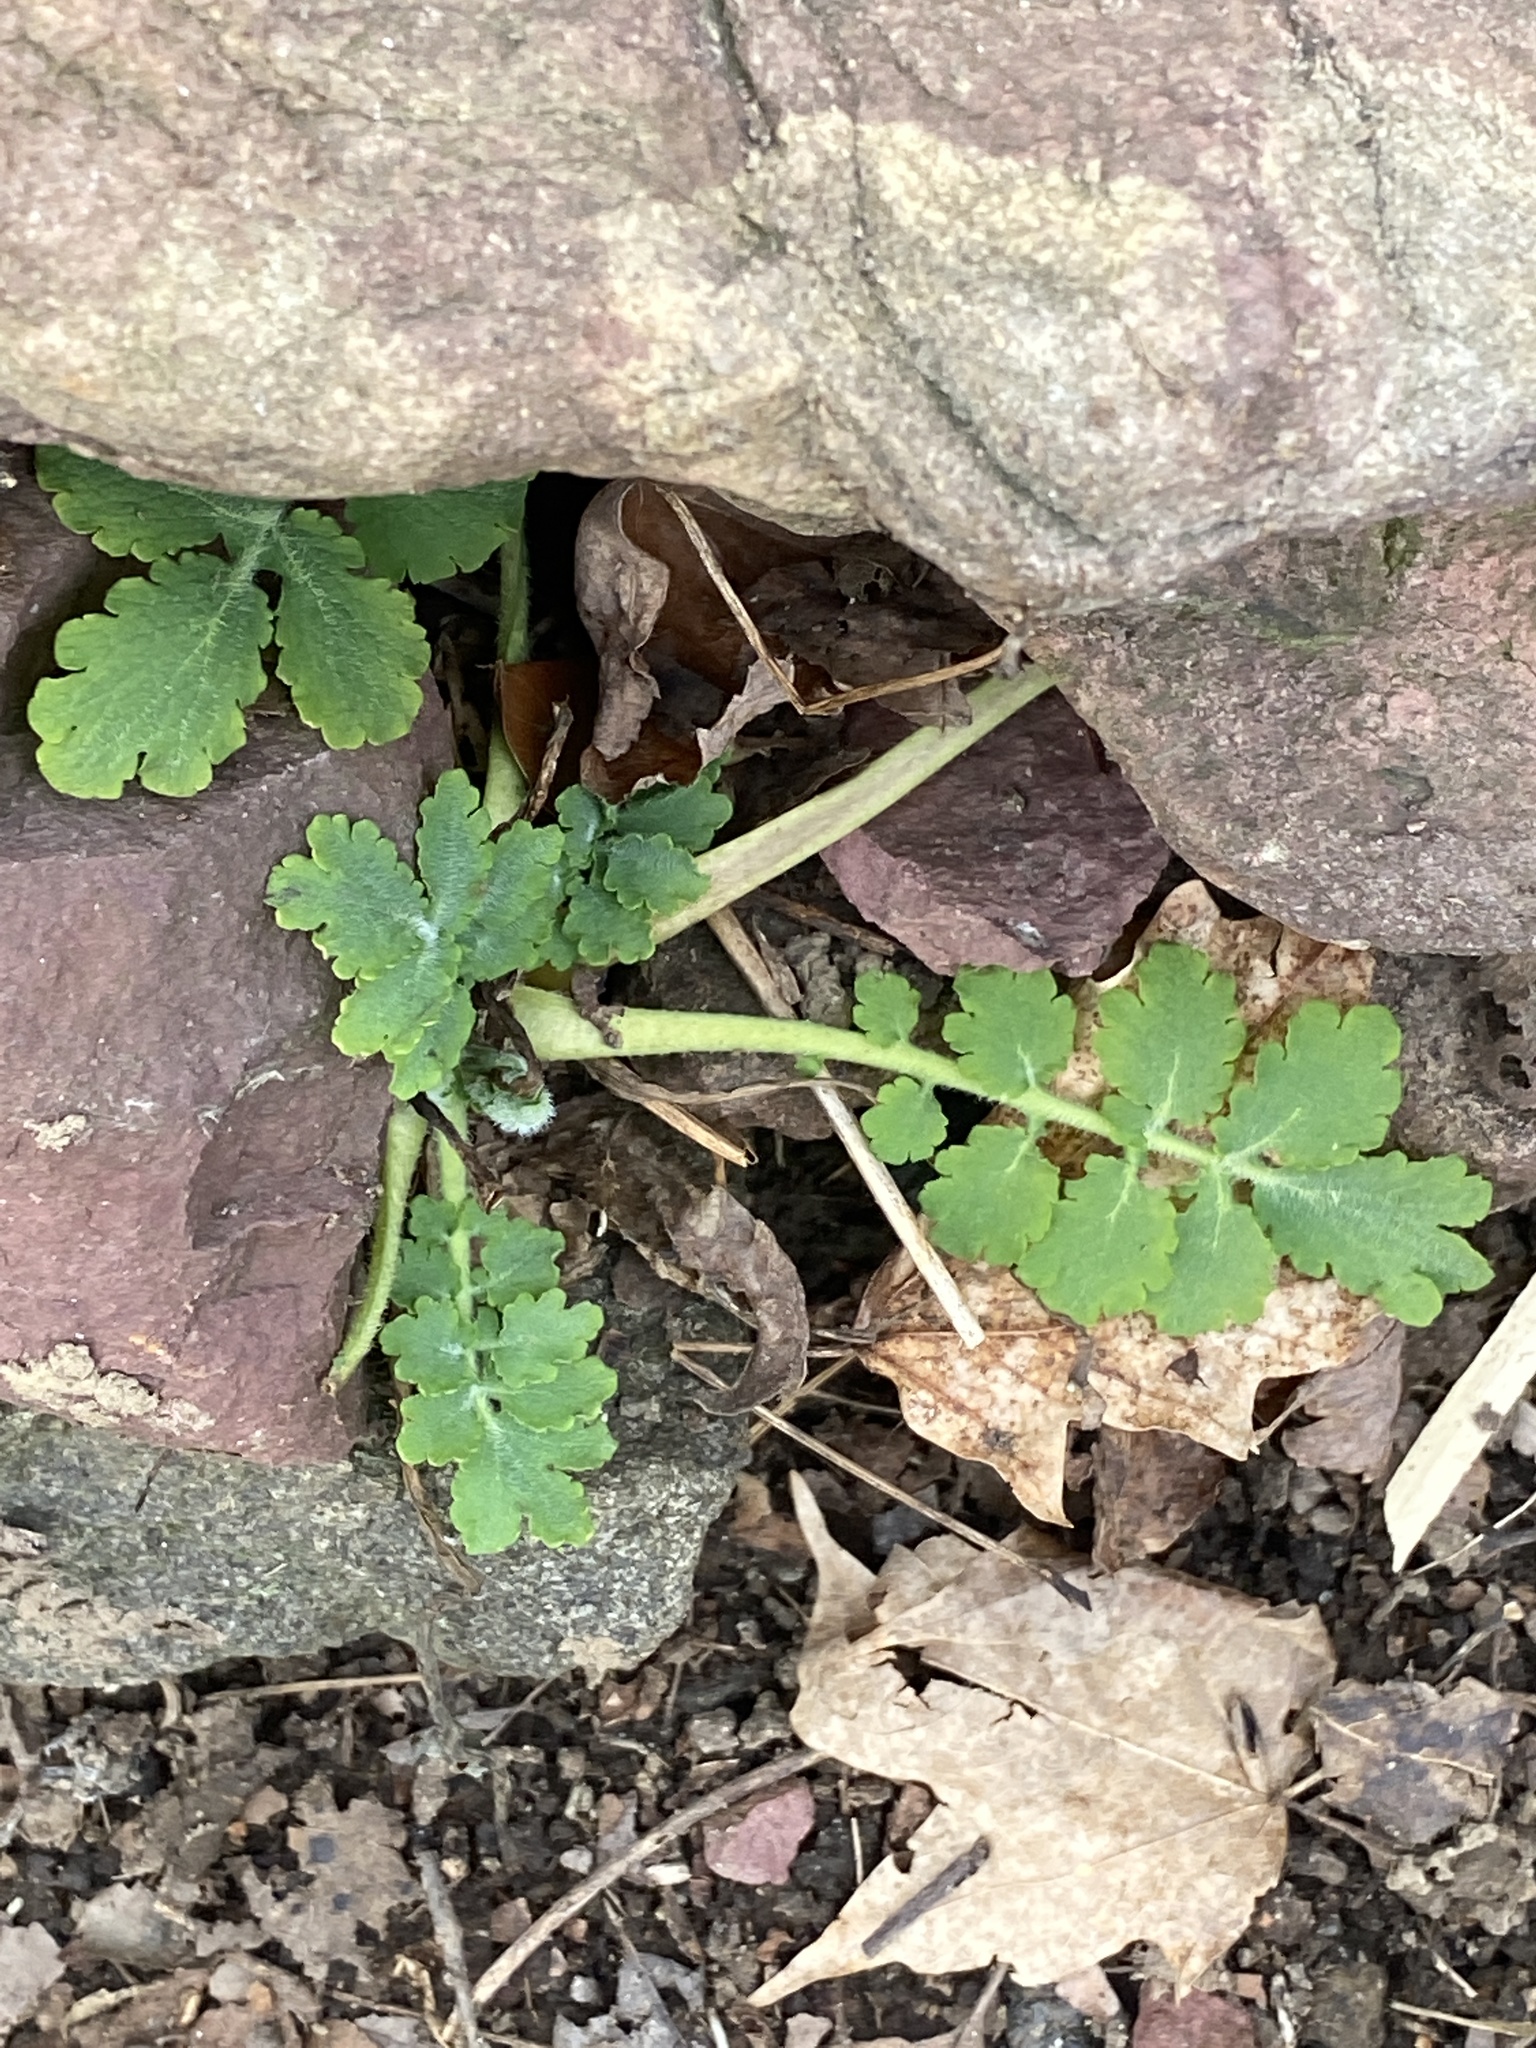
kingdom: Plantae
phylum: Tracheophyta
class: Magnoliopsida
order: Ranunculales
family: Papaveraceae
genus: Chelidonium
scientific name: Chelidonium majus
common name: Greater celandine
